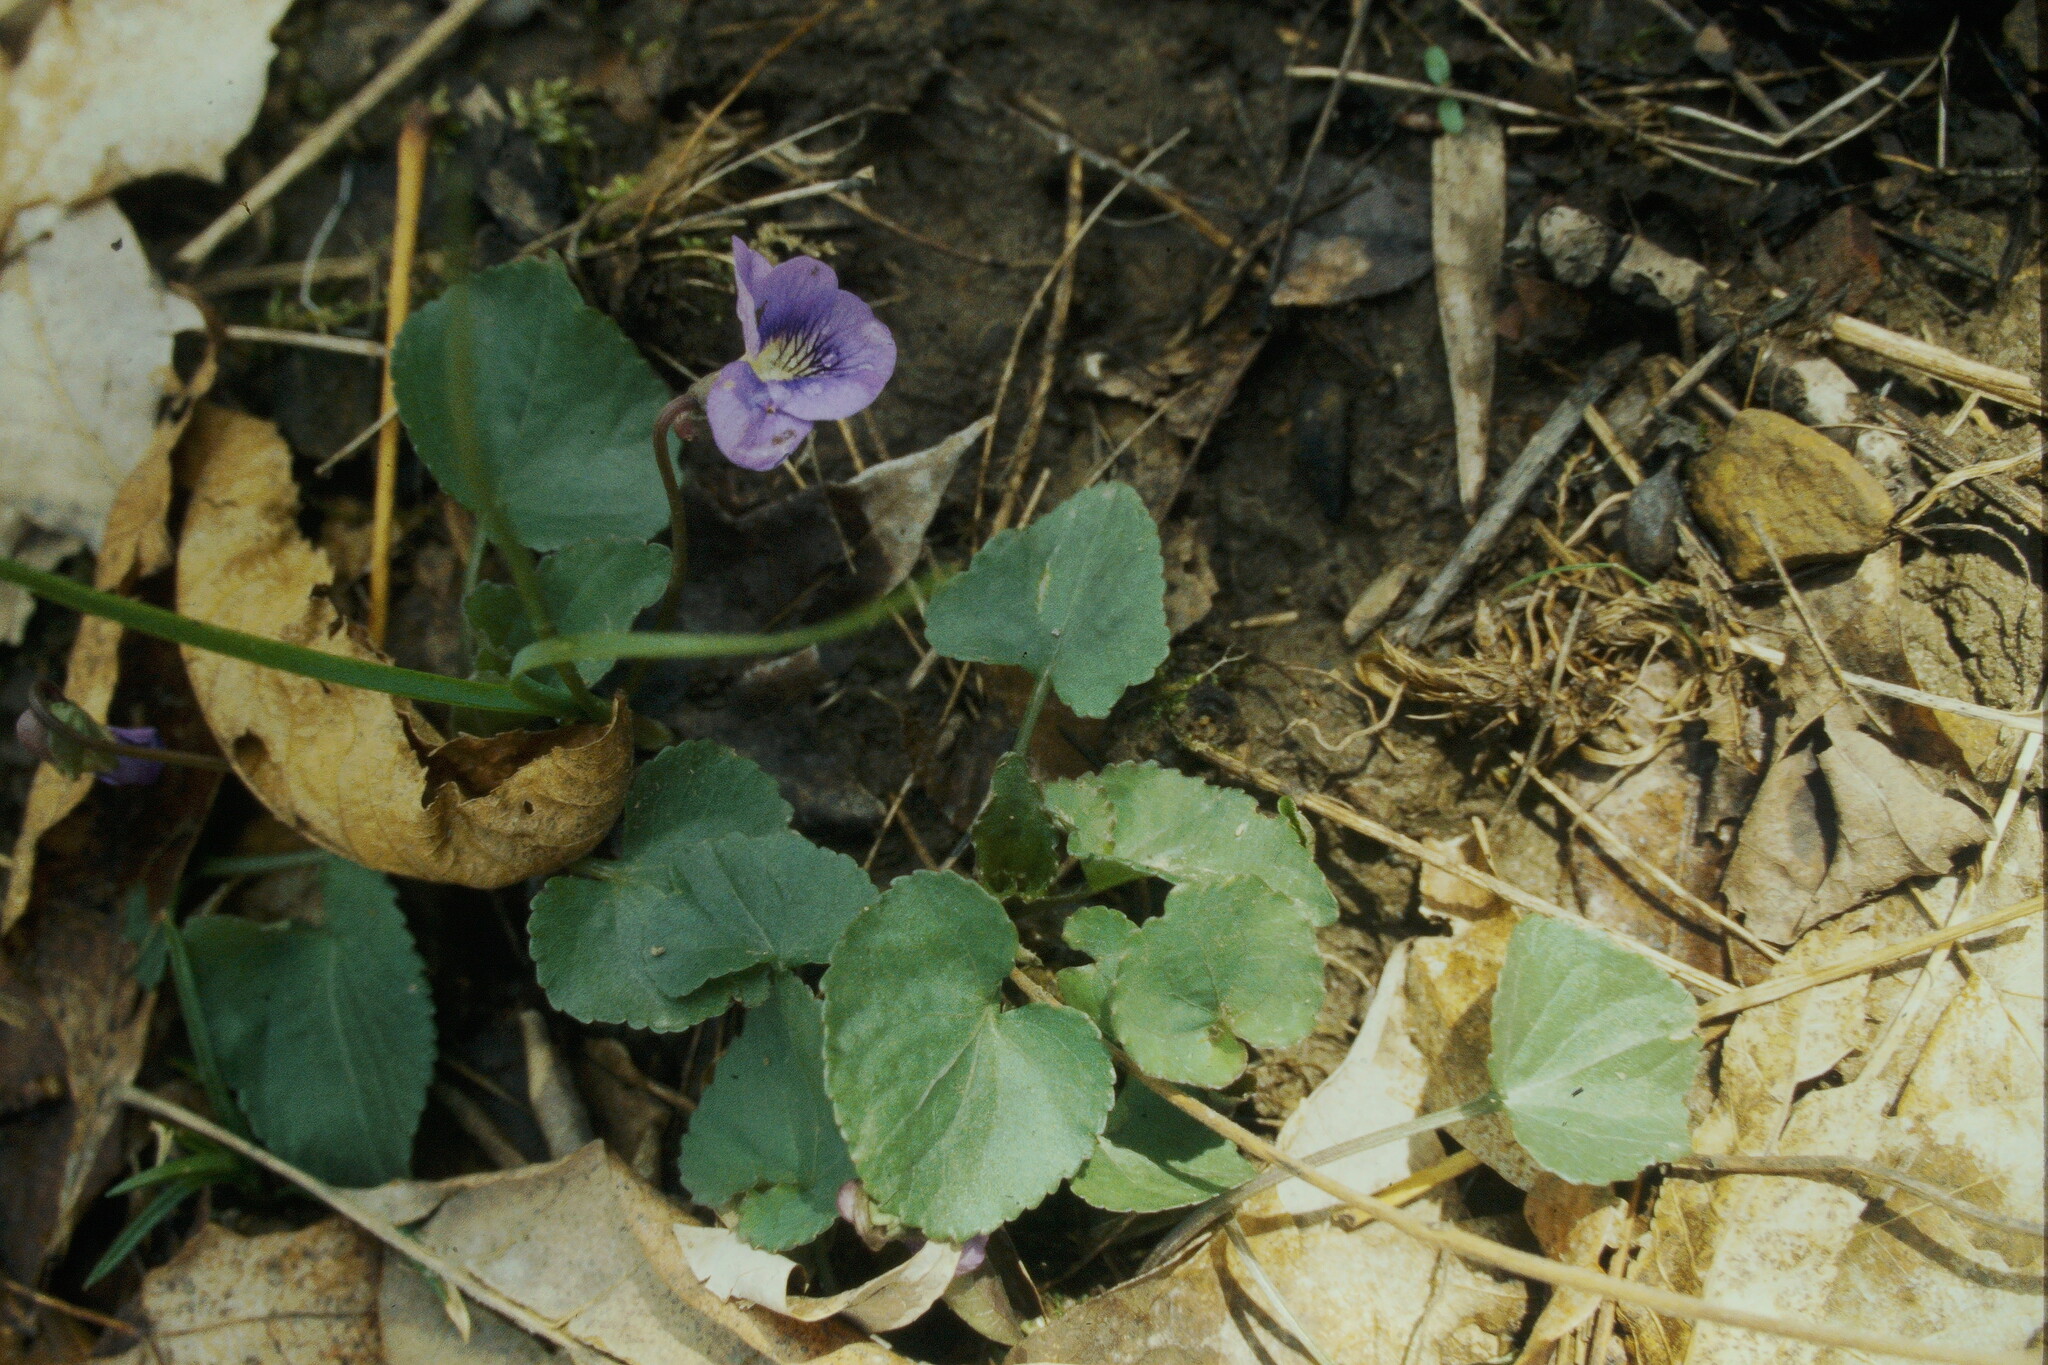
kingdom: Plantae
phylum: Tracheophyta
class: Magnoliopsida
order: Malpighiales
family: Violaceae
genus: Viola
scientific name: Viola sororia
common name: Dooryard violet
